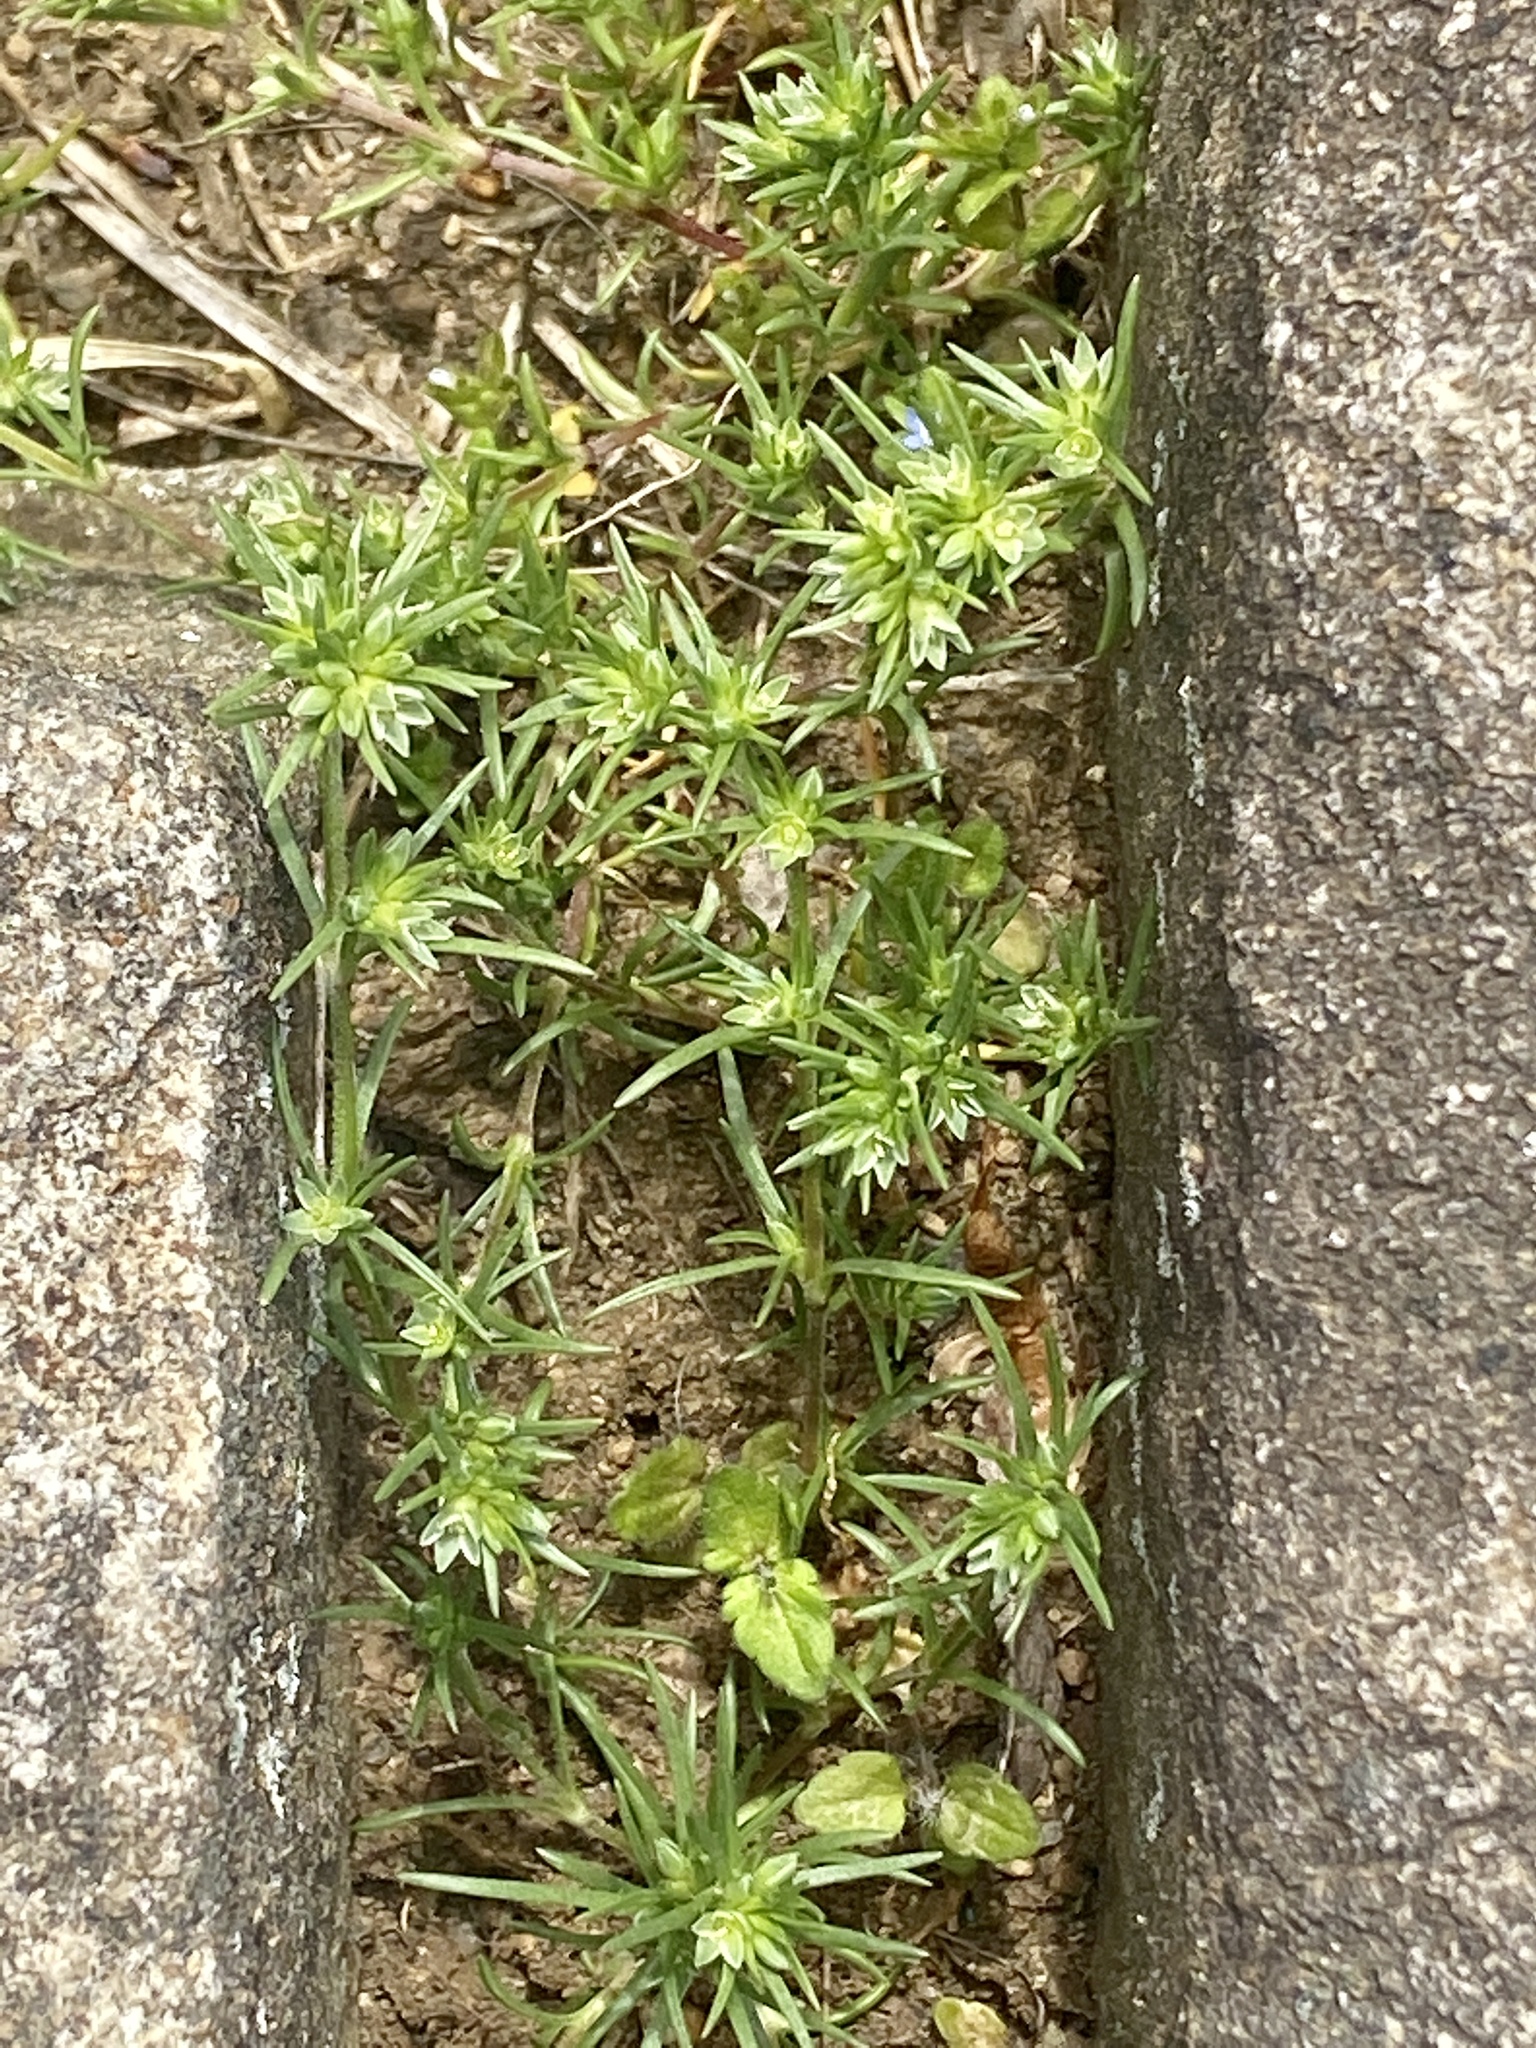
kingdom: Plantae
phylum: Tracheophyta
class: Magnoliopsida
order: Caryophyllales
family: Caryophyllaceae
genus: Scleranthus
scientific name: Scleranthus annuus
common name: Annual knawel
